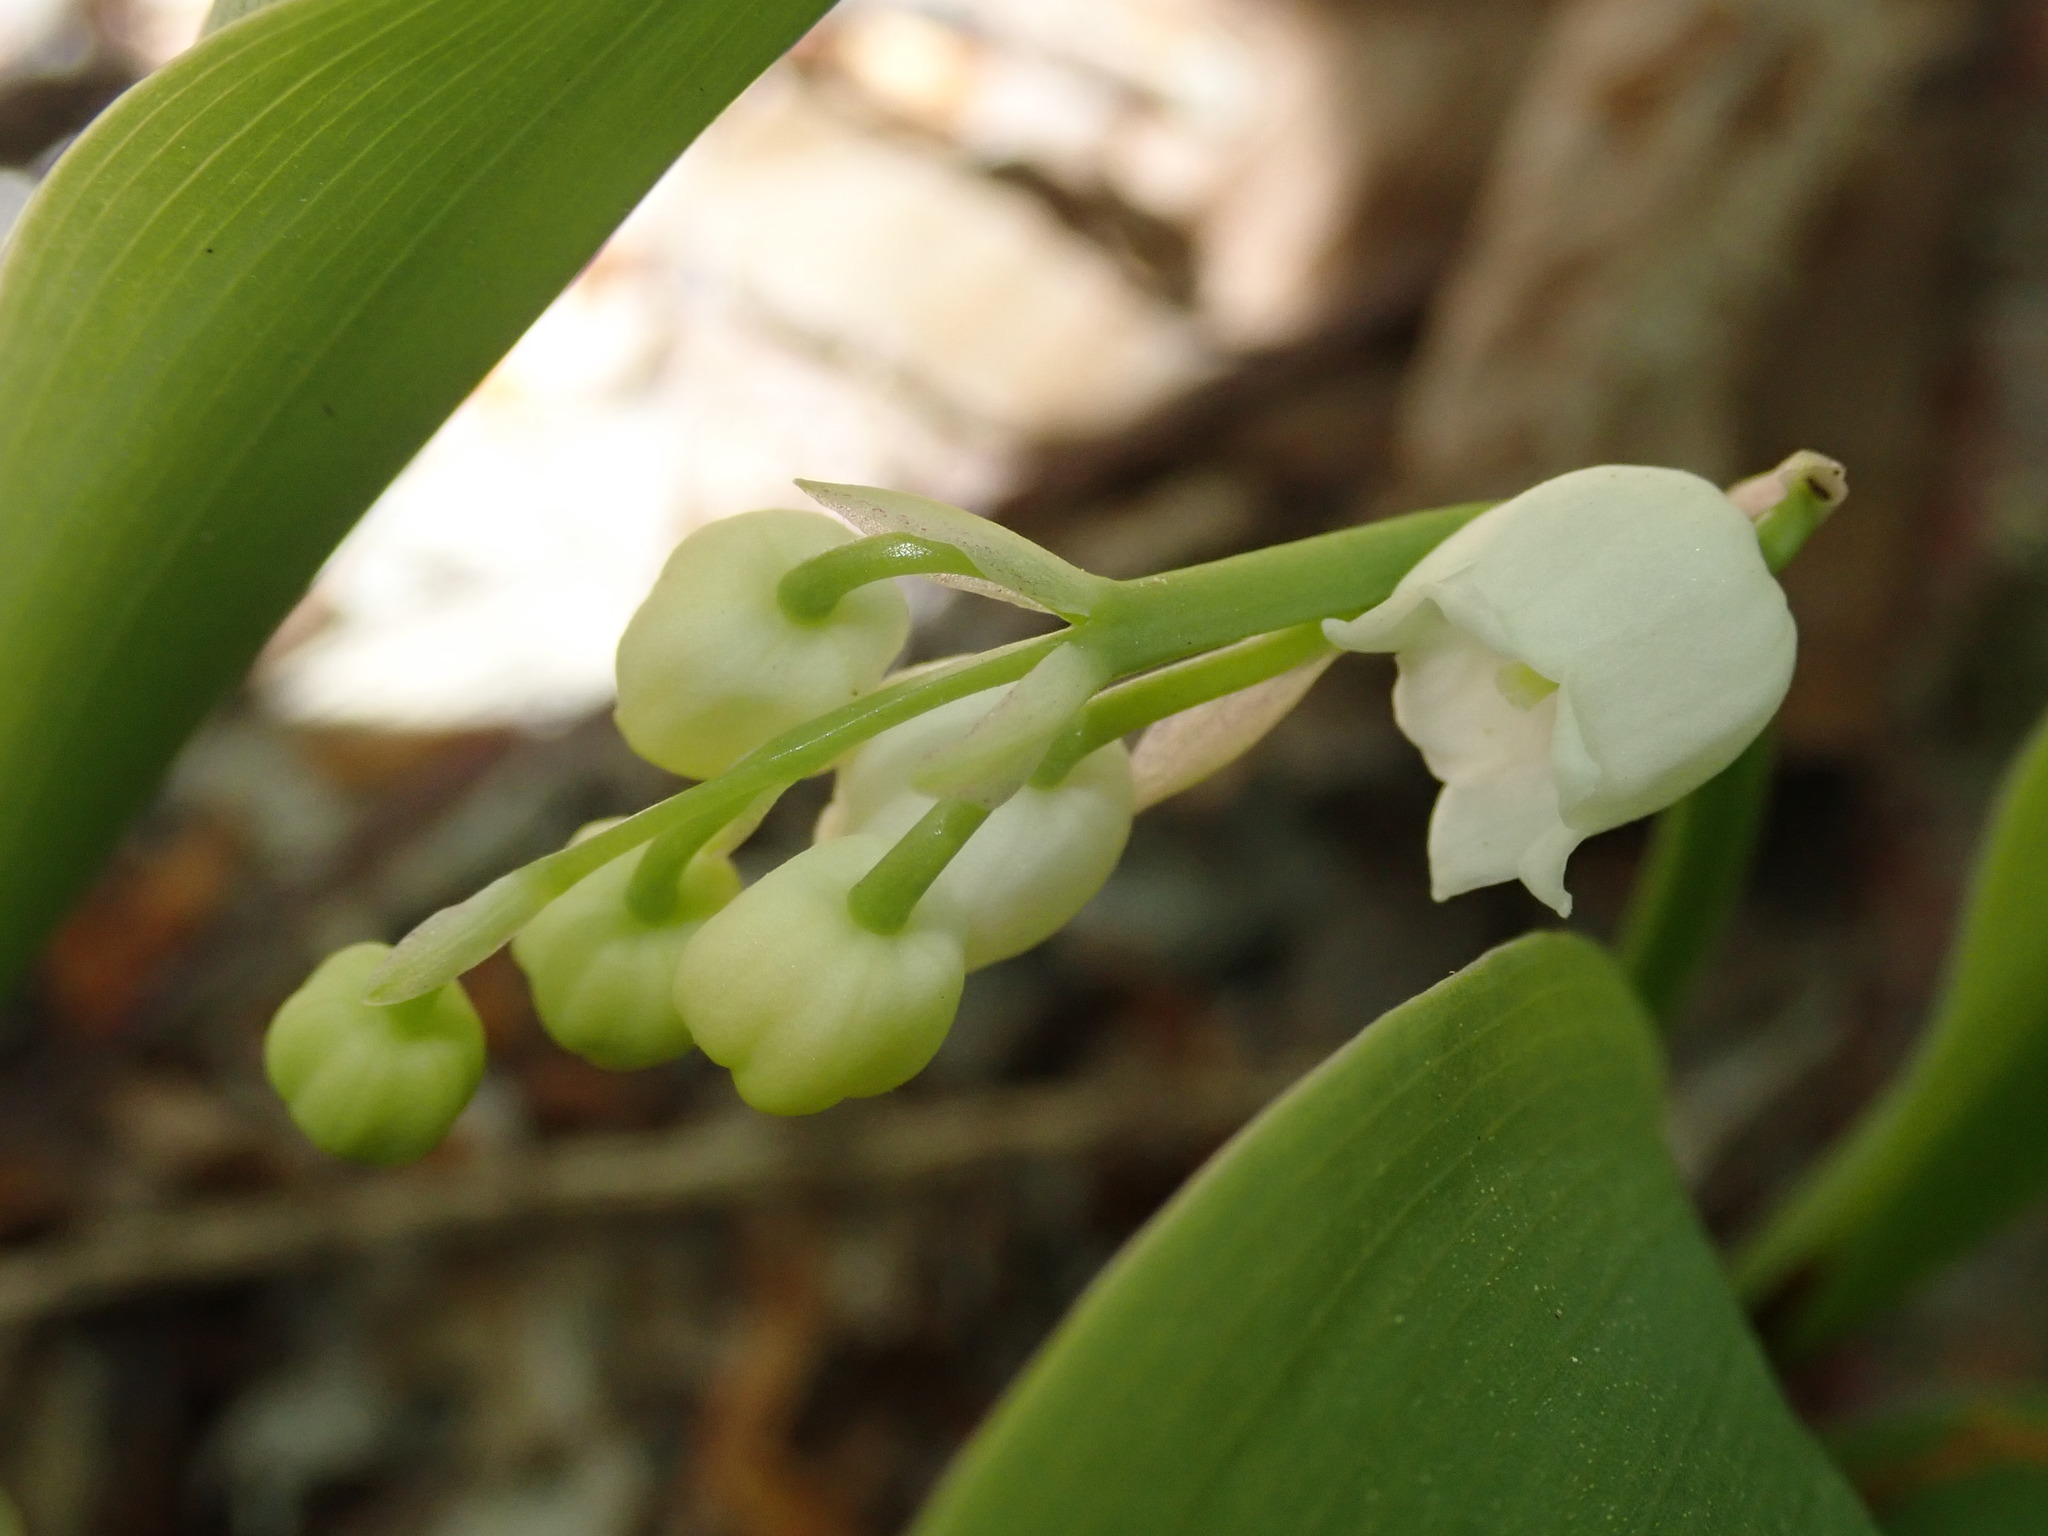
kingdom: Plantae
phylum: Tracheophyta
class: Liliopsida
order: Asparagales
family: Asparagaceae
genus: Convallaria
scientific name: Convallaria majalis
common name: Lily-of-the-valley
